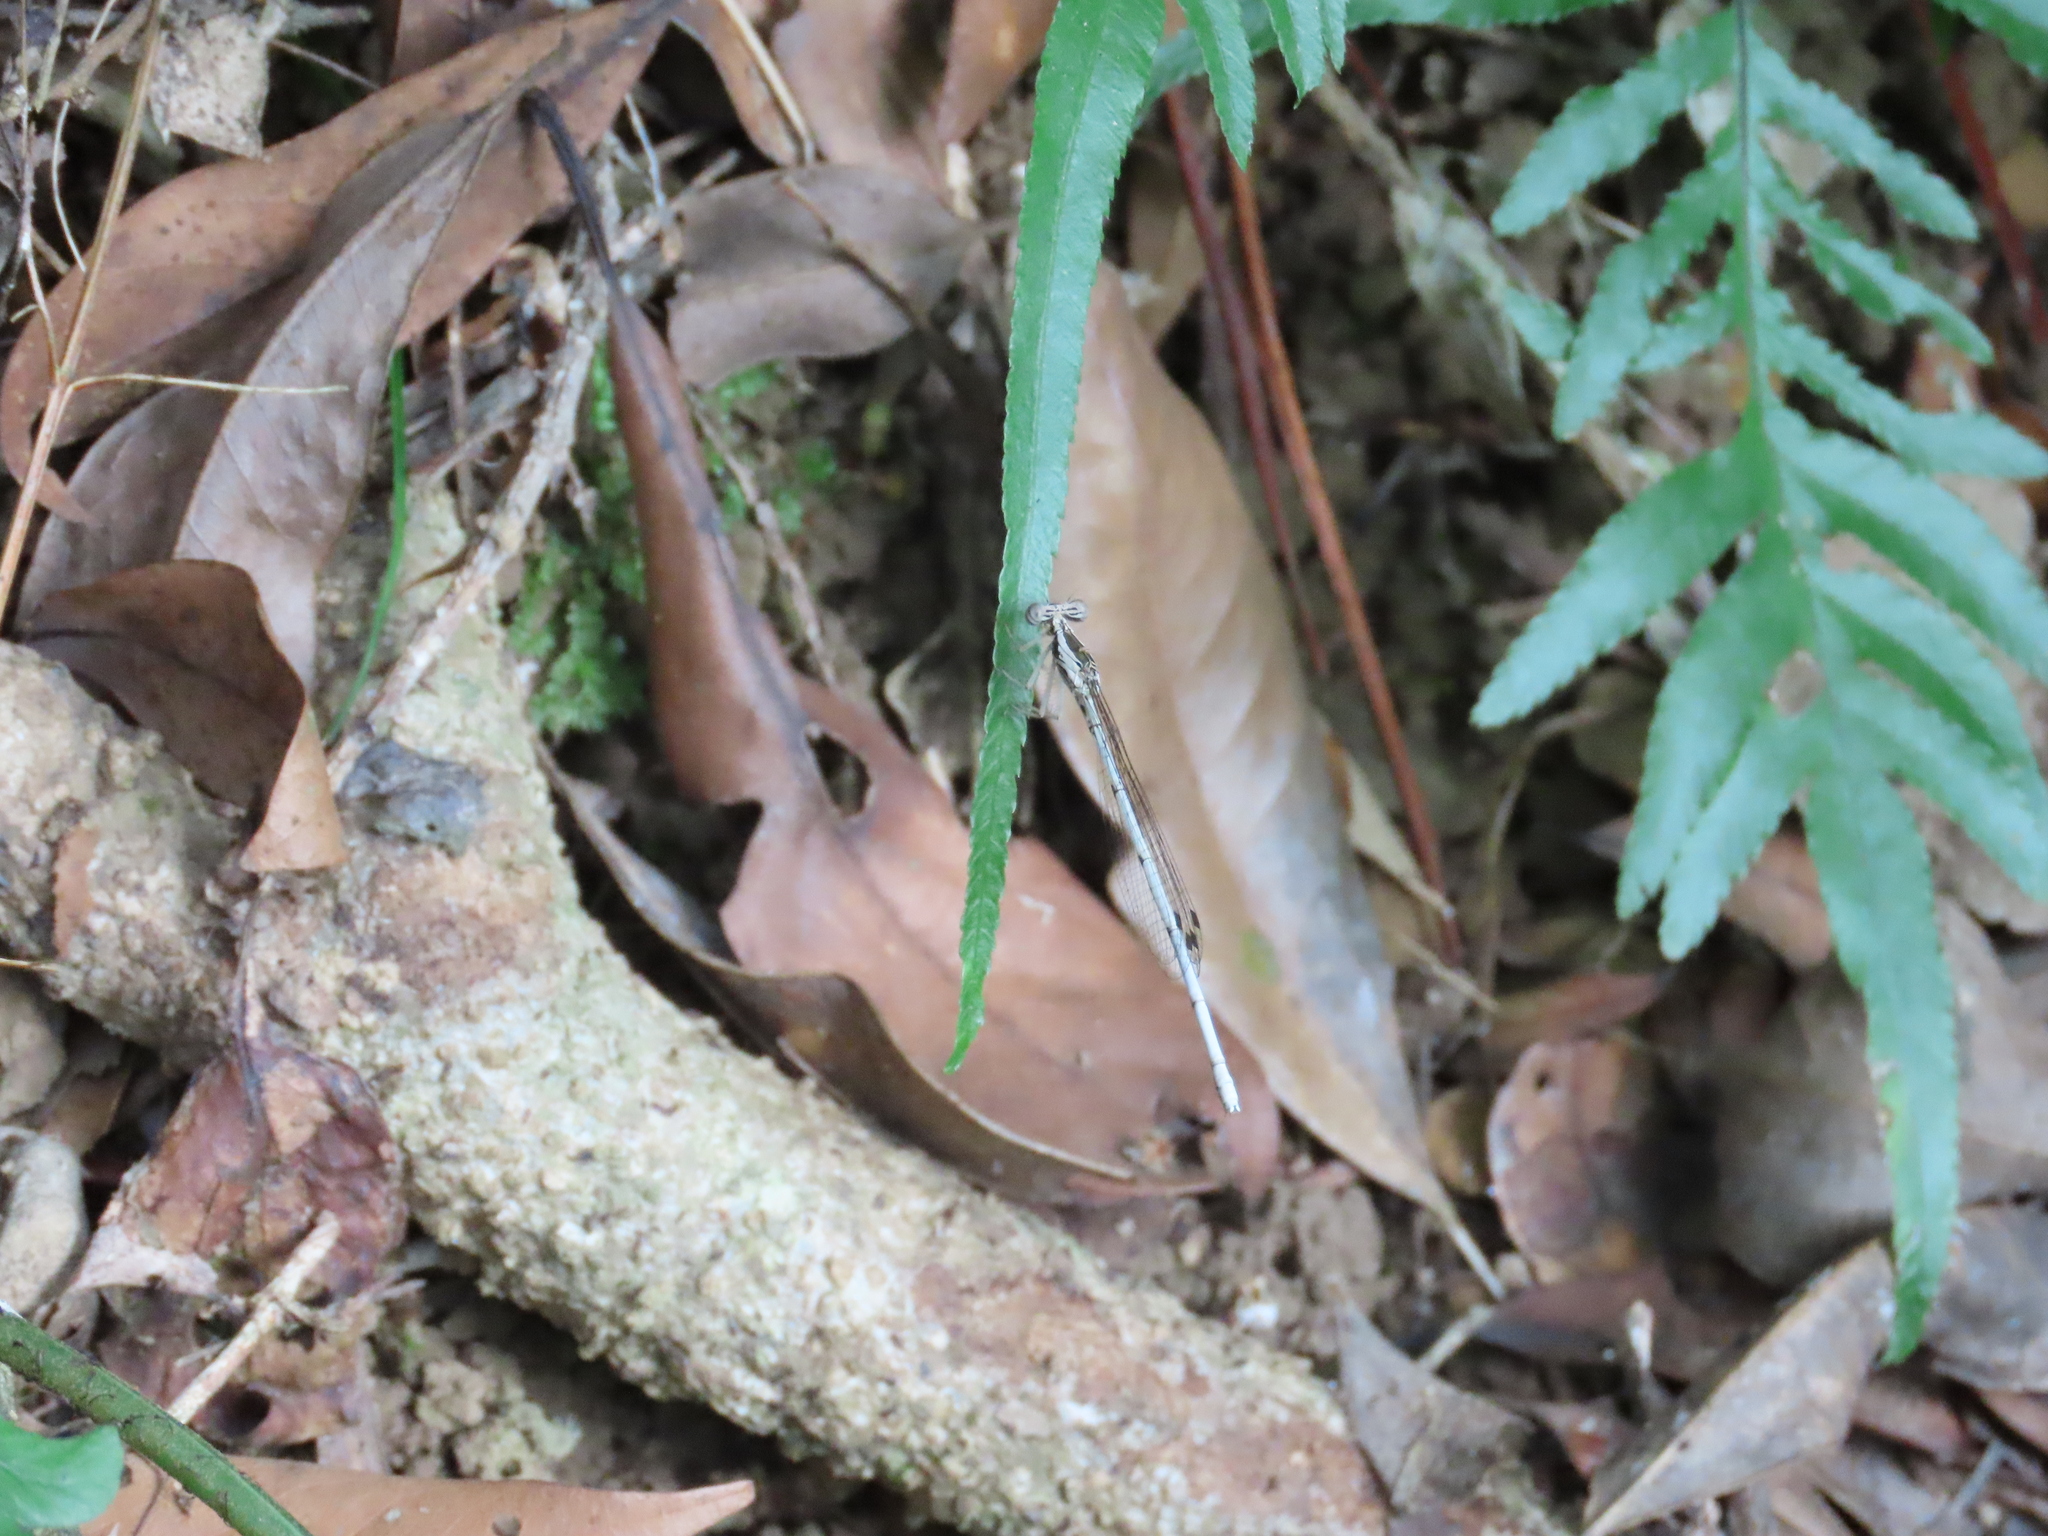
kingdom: Animalia
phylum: Arthropoda
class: Insecta
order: Odonata
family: Platycnemididae
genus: Copera
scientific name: Copera marginipes
